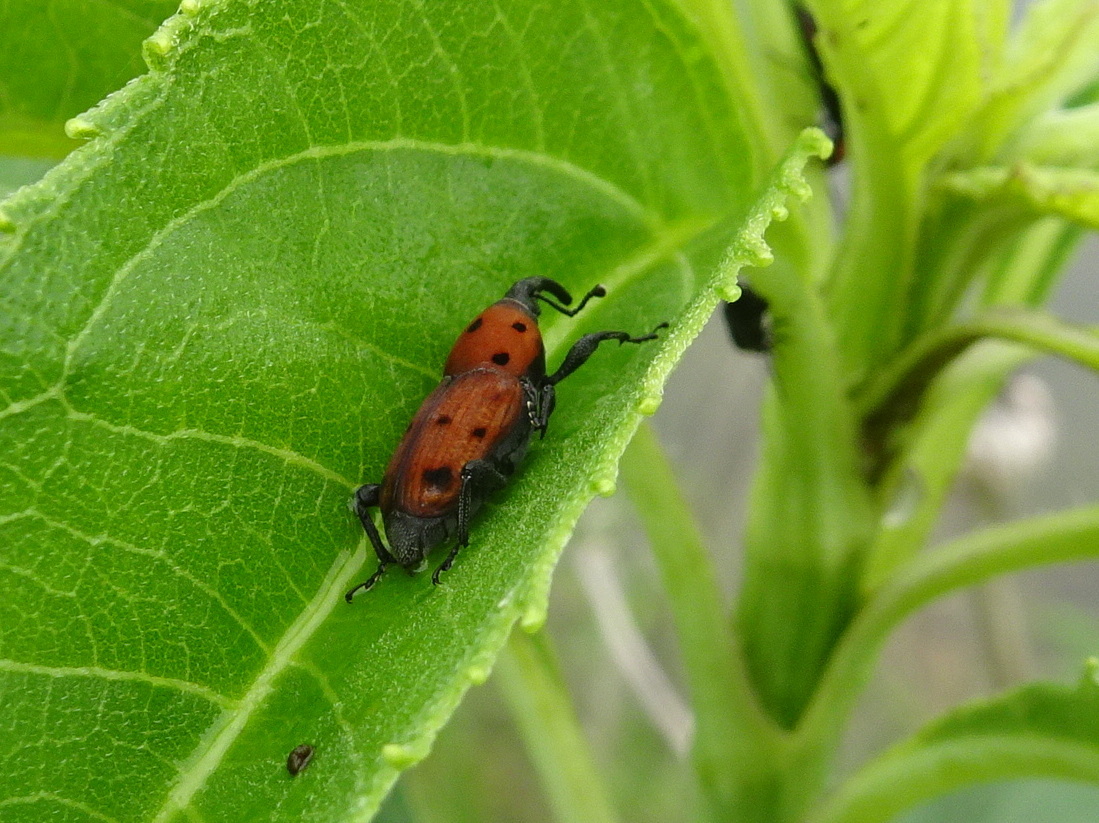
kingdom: Animalia
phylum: Arthropoda
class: Insecta
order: Coleoptera
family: Dryophthoridae
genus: Rhodobaenus
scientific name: Rhodobaenus tredecimpunctatus
